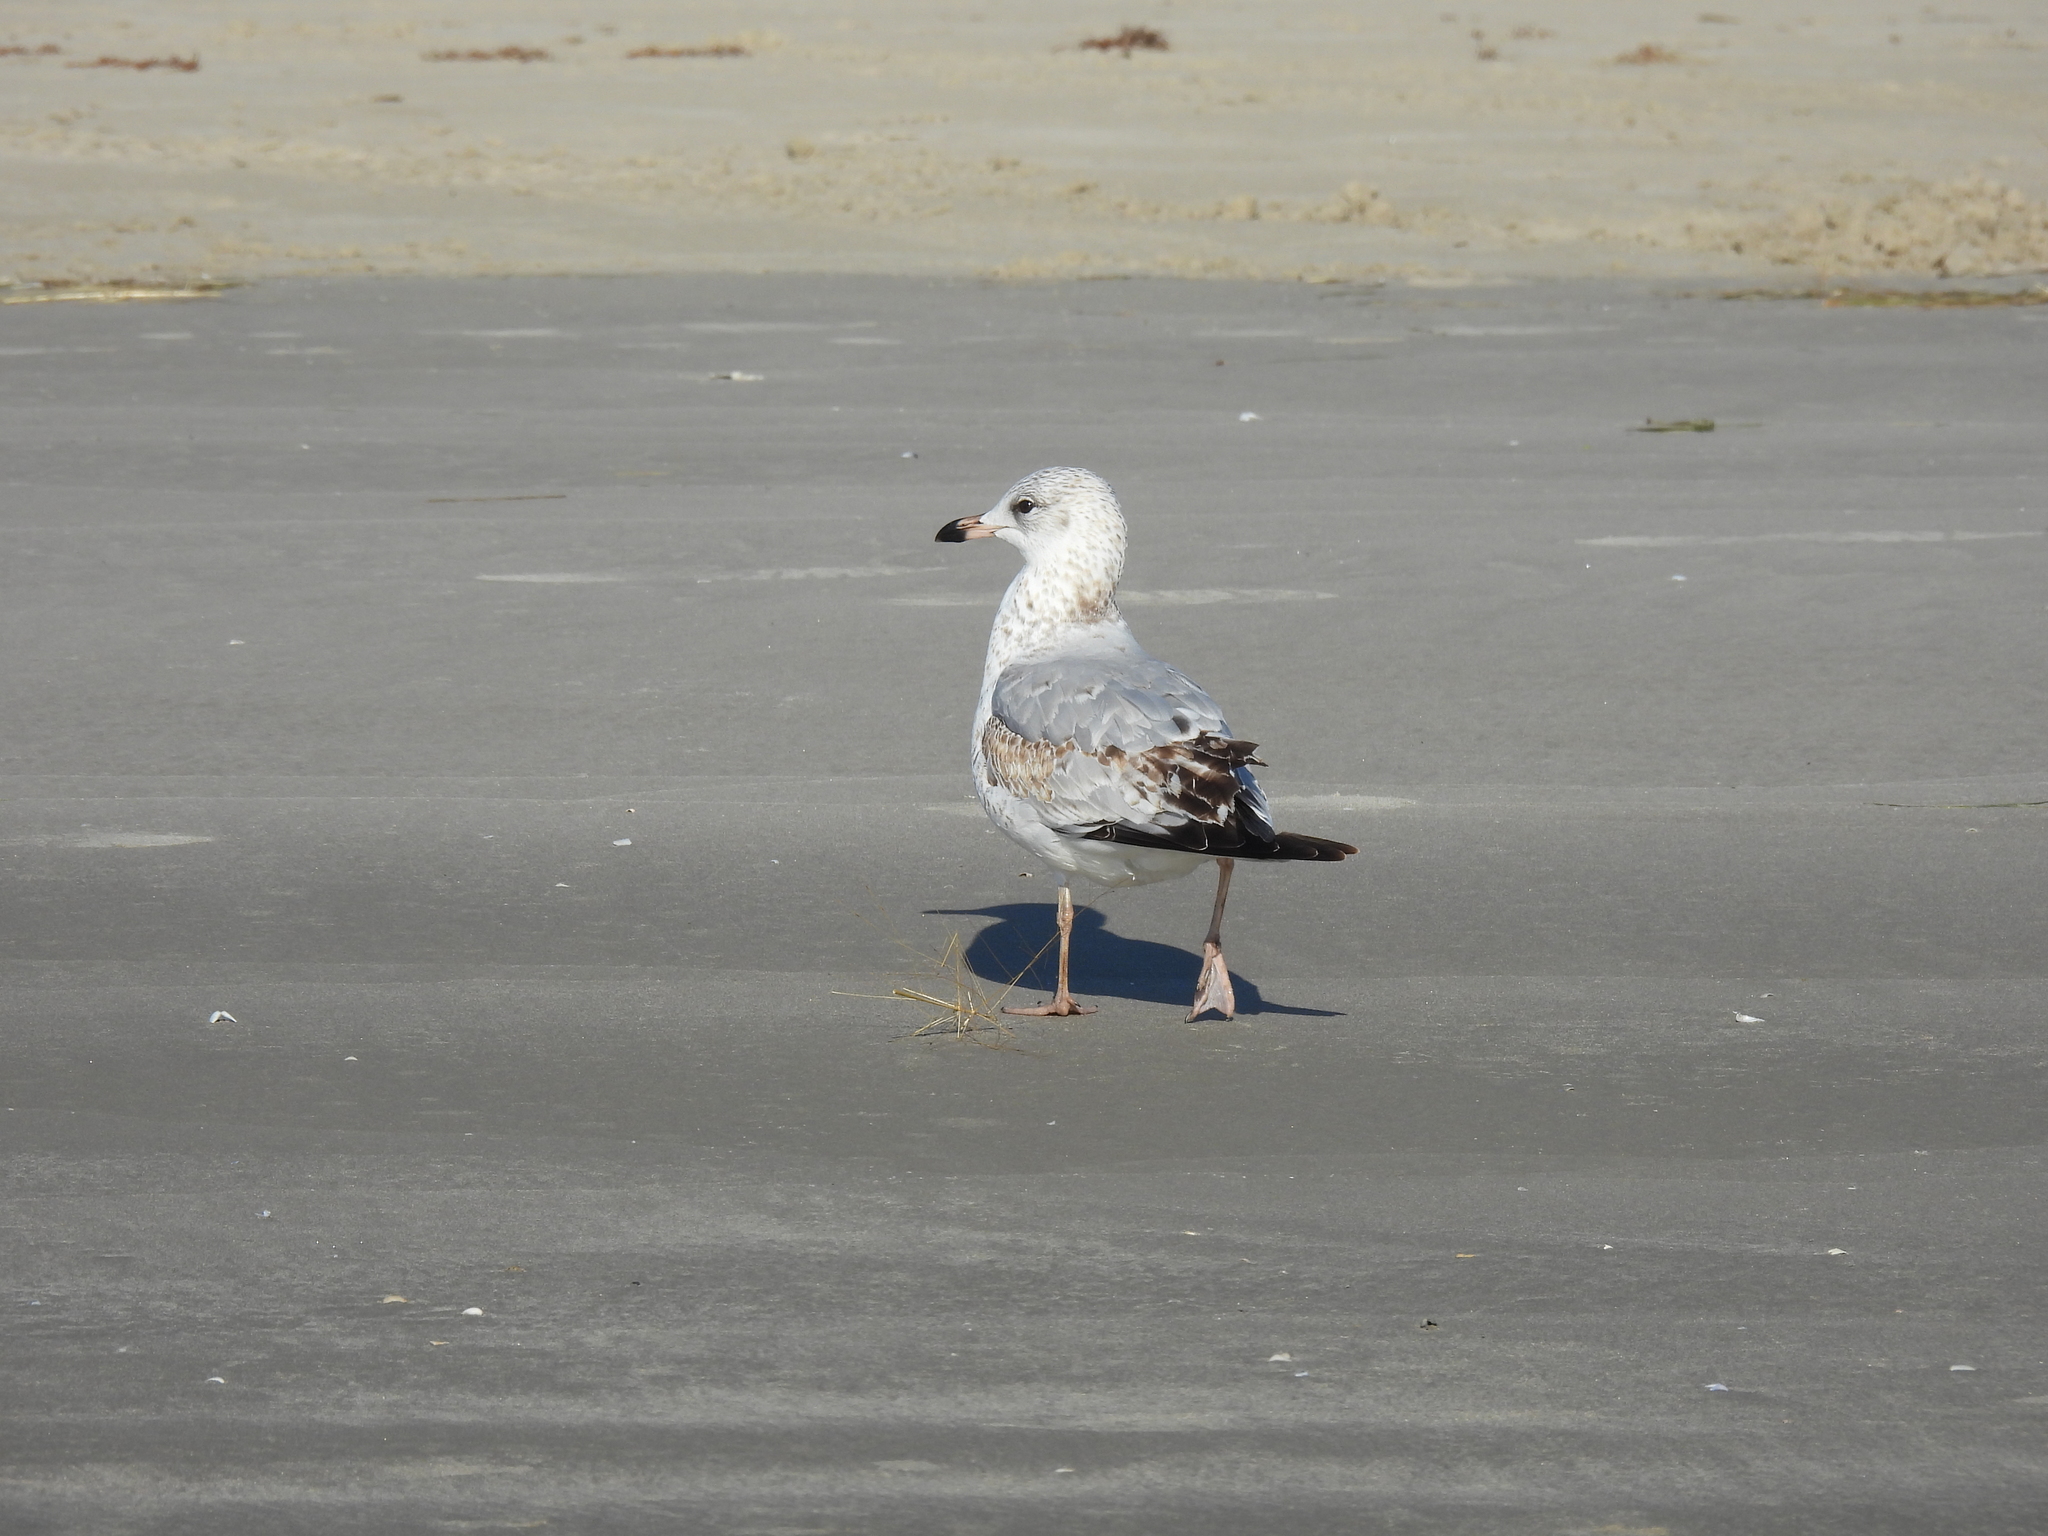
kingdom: Animalia
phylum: Chordata
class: Aves
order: Charadriiformes
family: Laridae
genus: Larus
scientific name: Larus delawarensis
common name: Ring-billed gull
